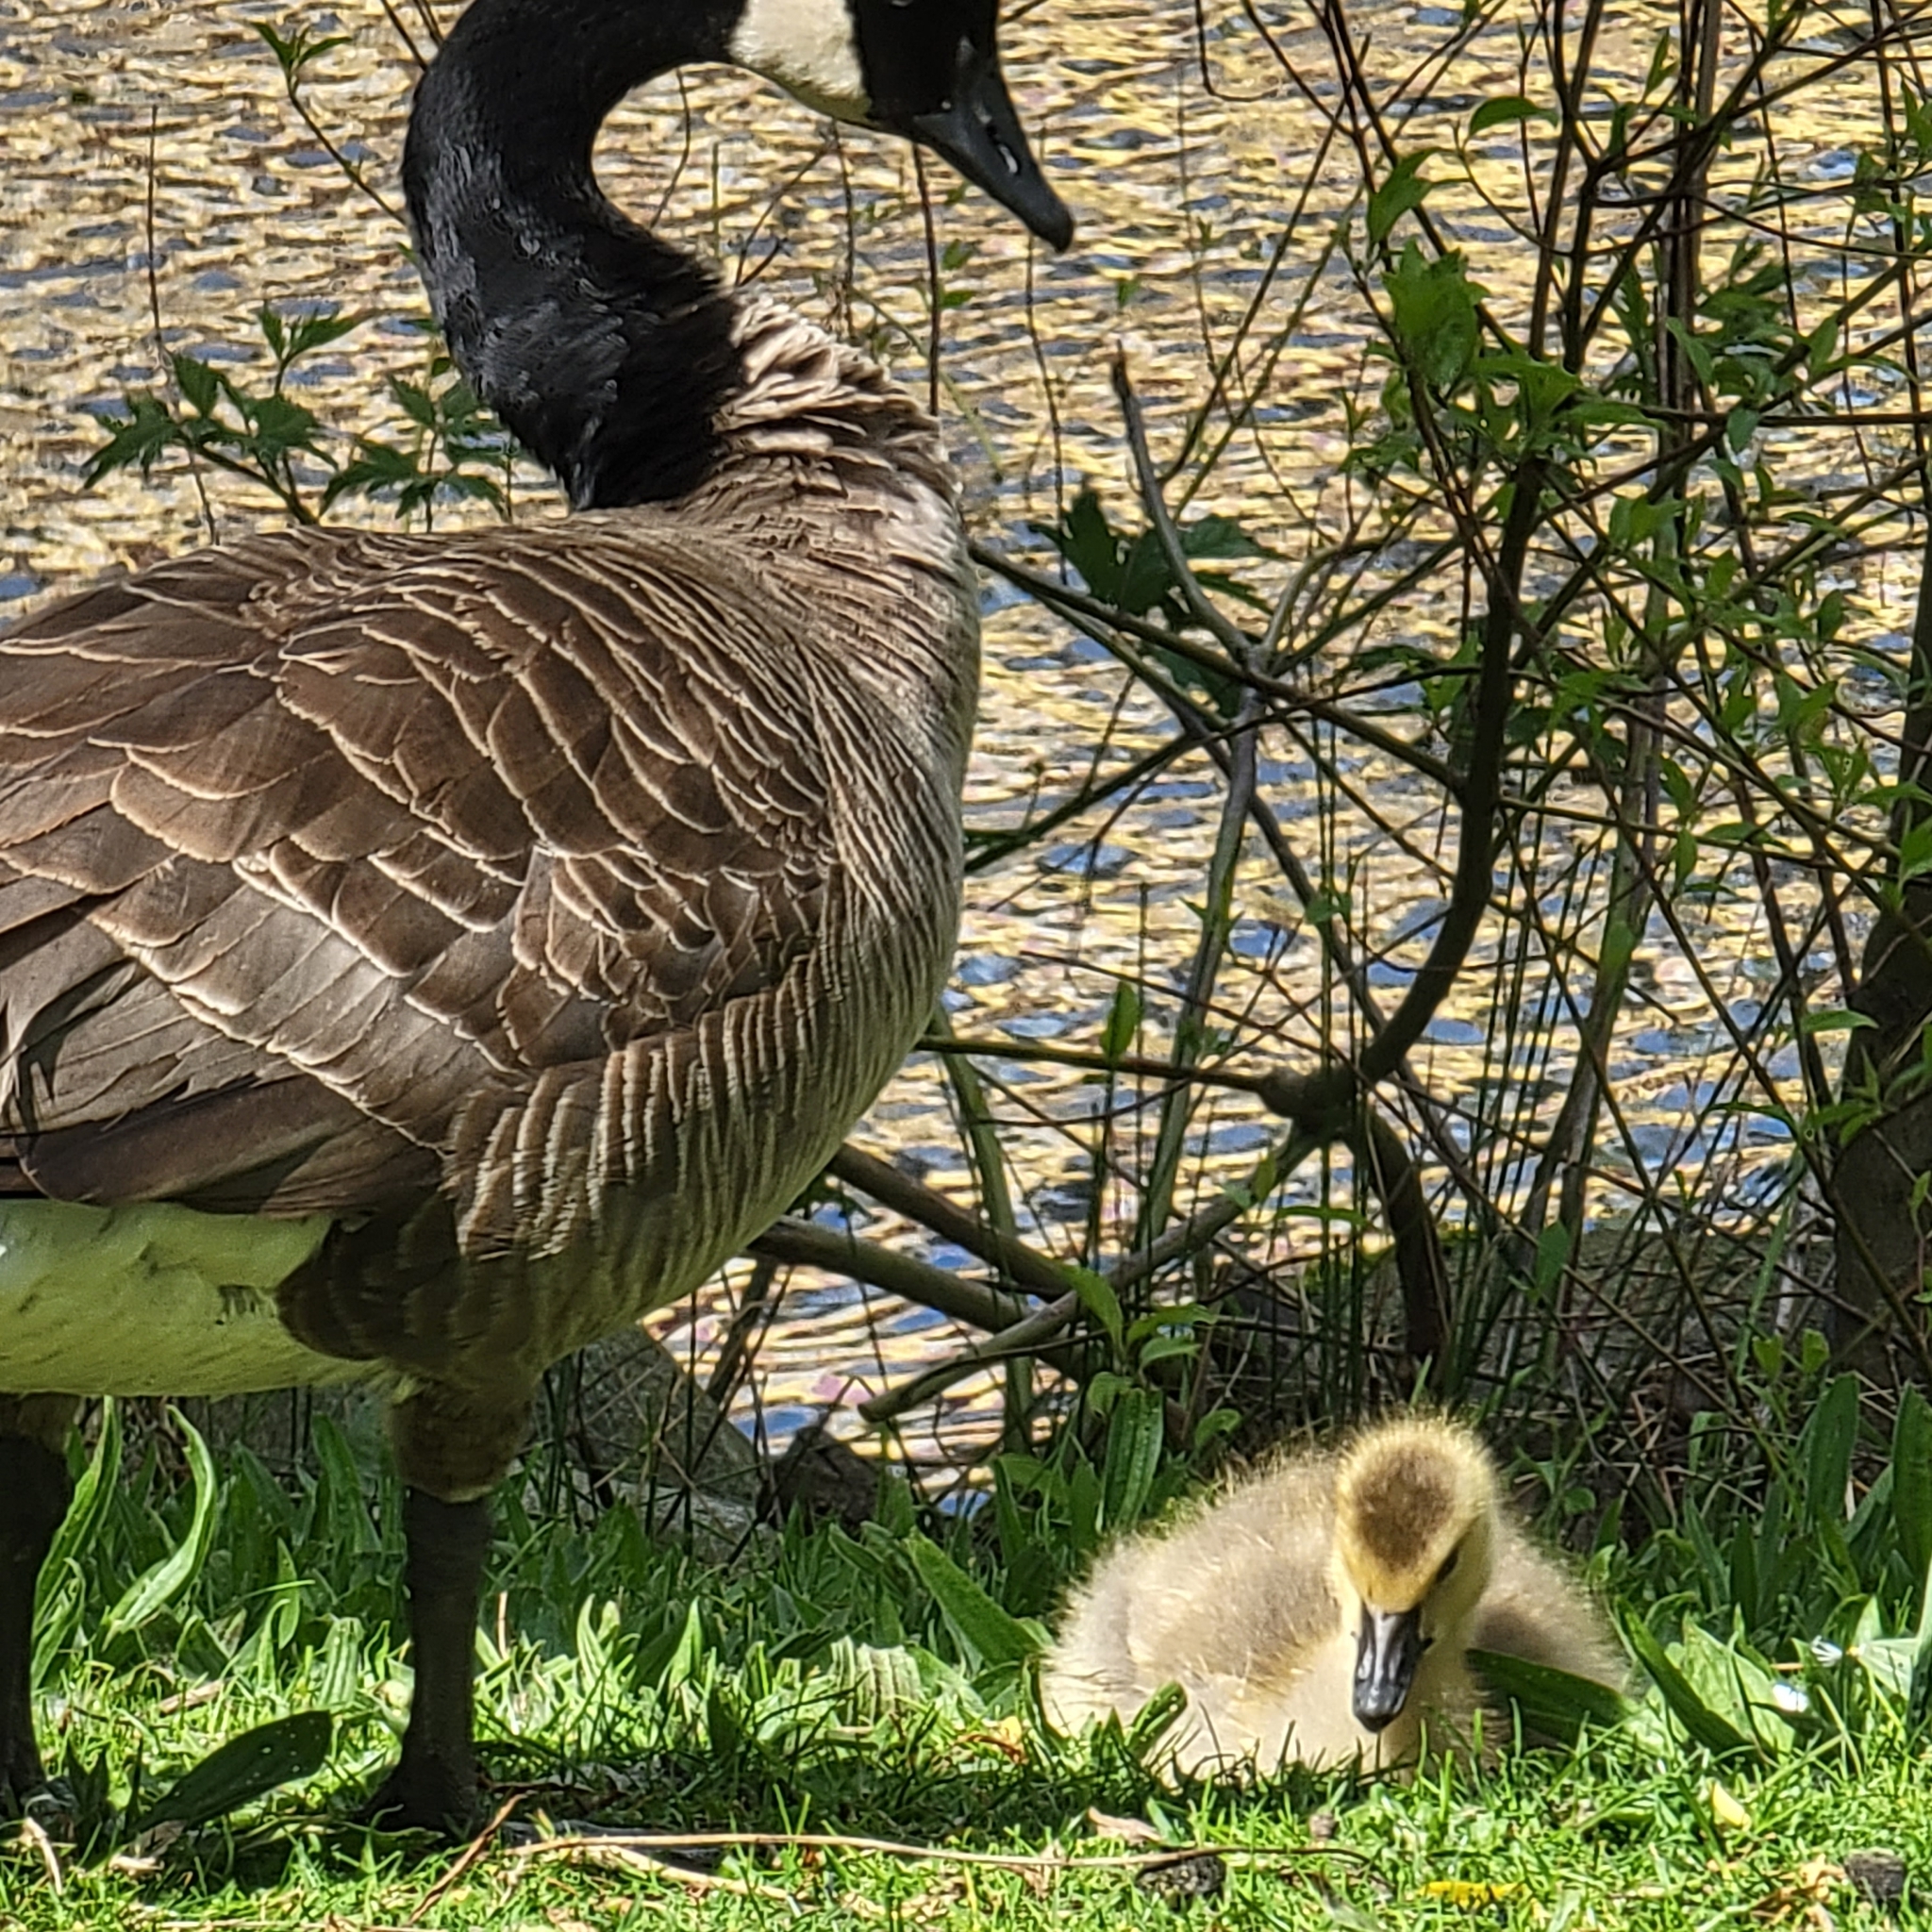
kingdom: Animalia
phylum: Chordata
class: Aves
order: Anseriformes
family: Anatidae
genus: Branta
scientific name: Branta canadensis
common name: Canada goose
